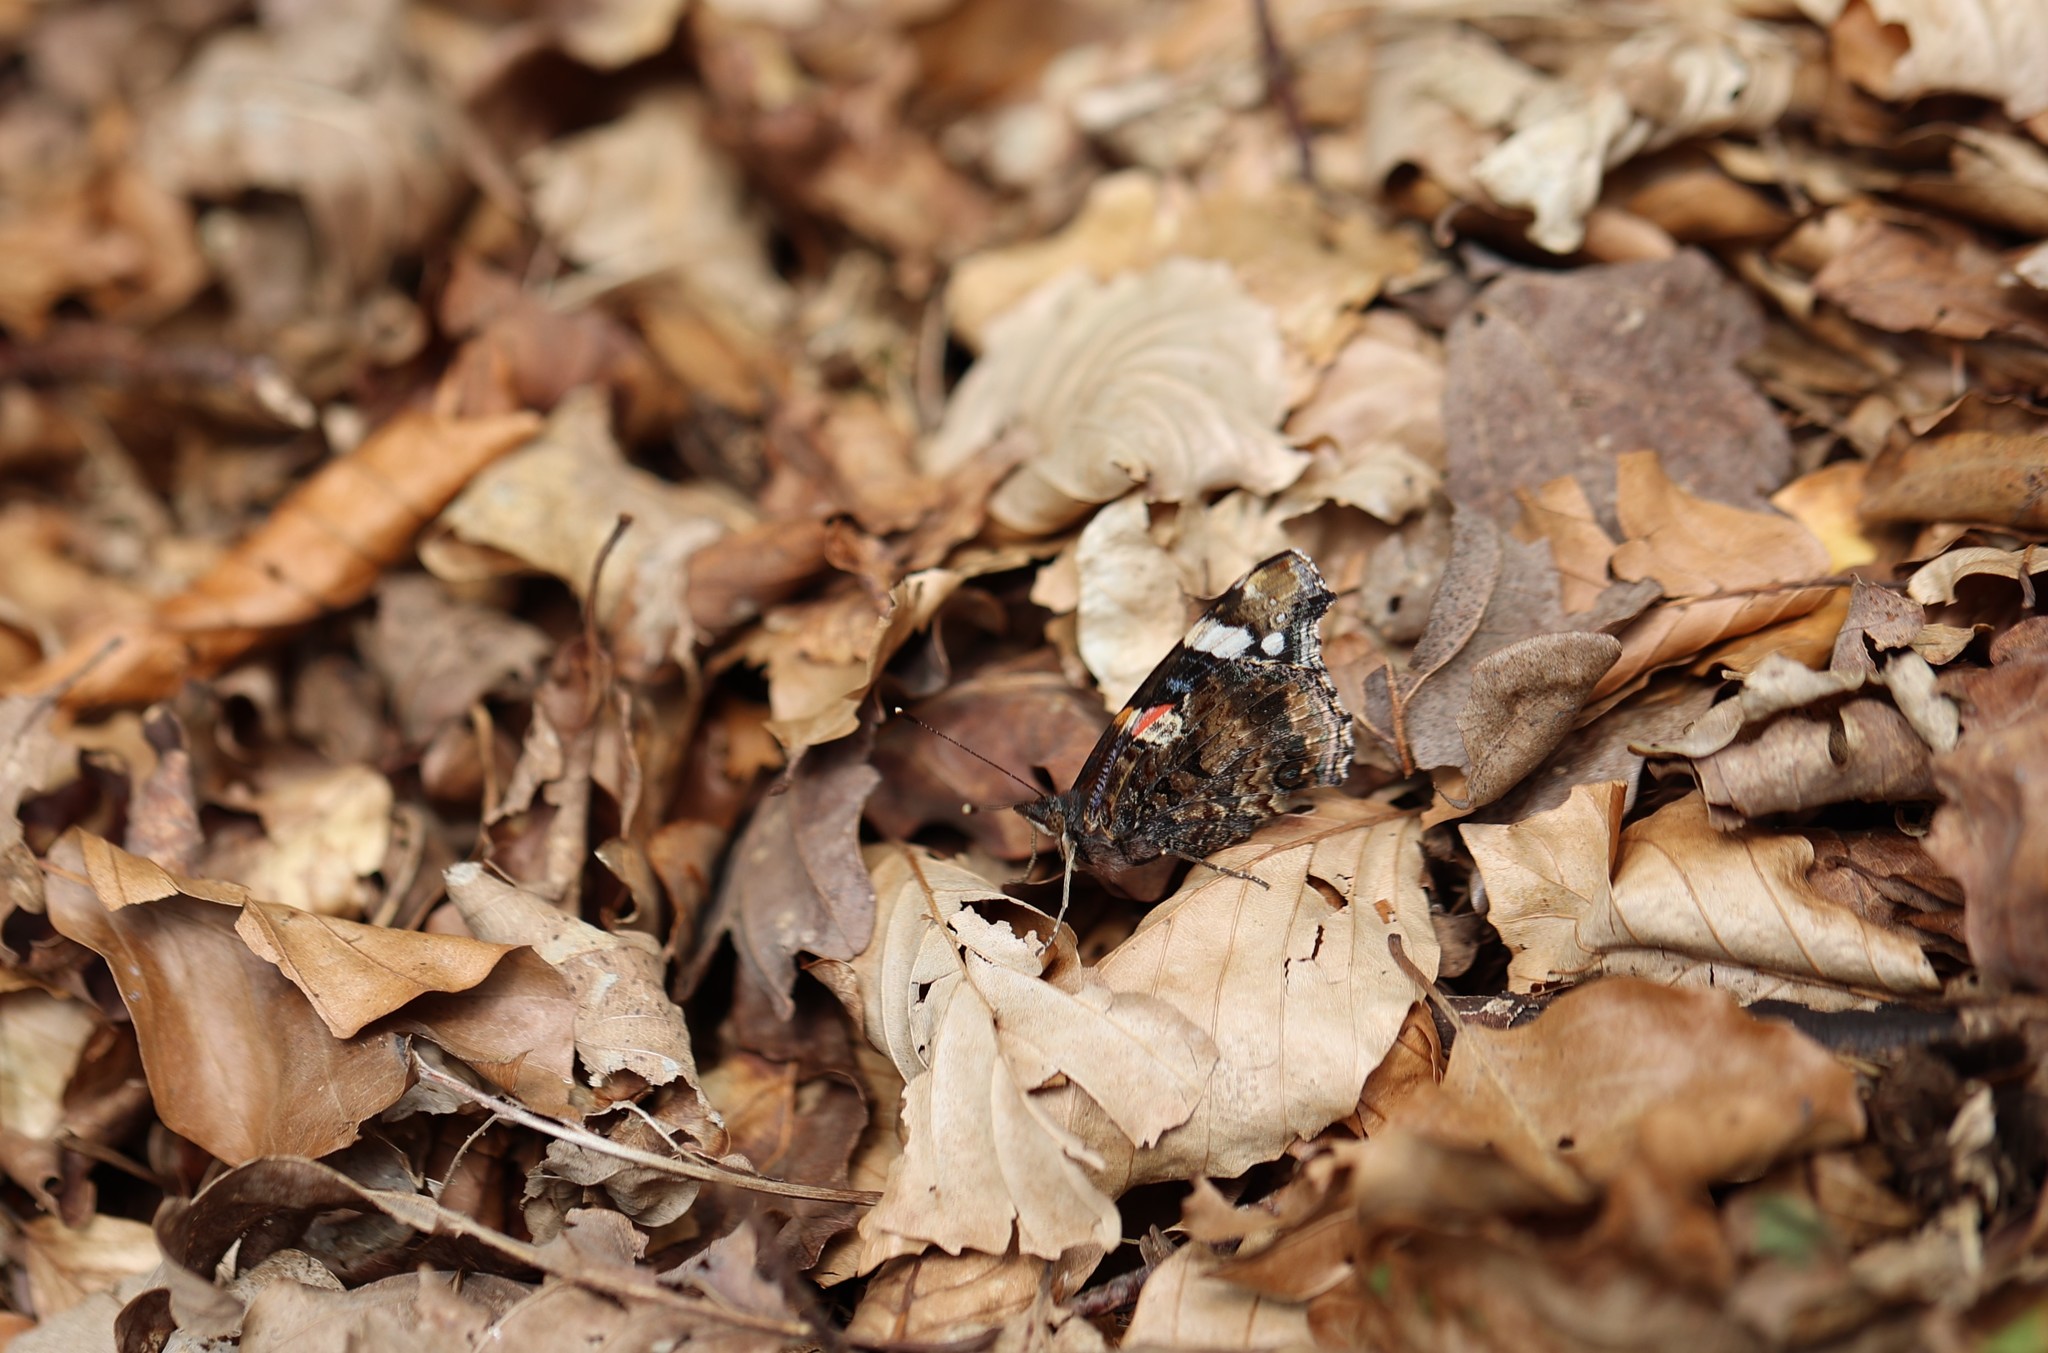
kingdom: Animalia
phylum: Arthropoda
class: Insecta
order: Lepidoptera
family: Nymphalidae
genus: Vanessa
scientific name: Vanessa atalanta
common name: Red admiral
